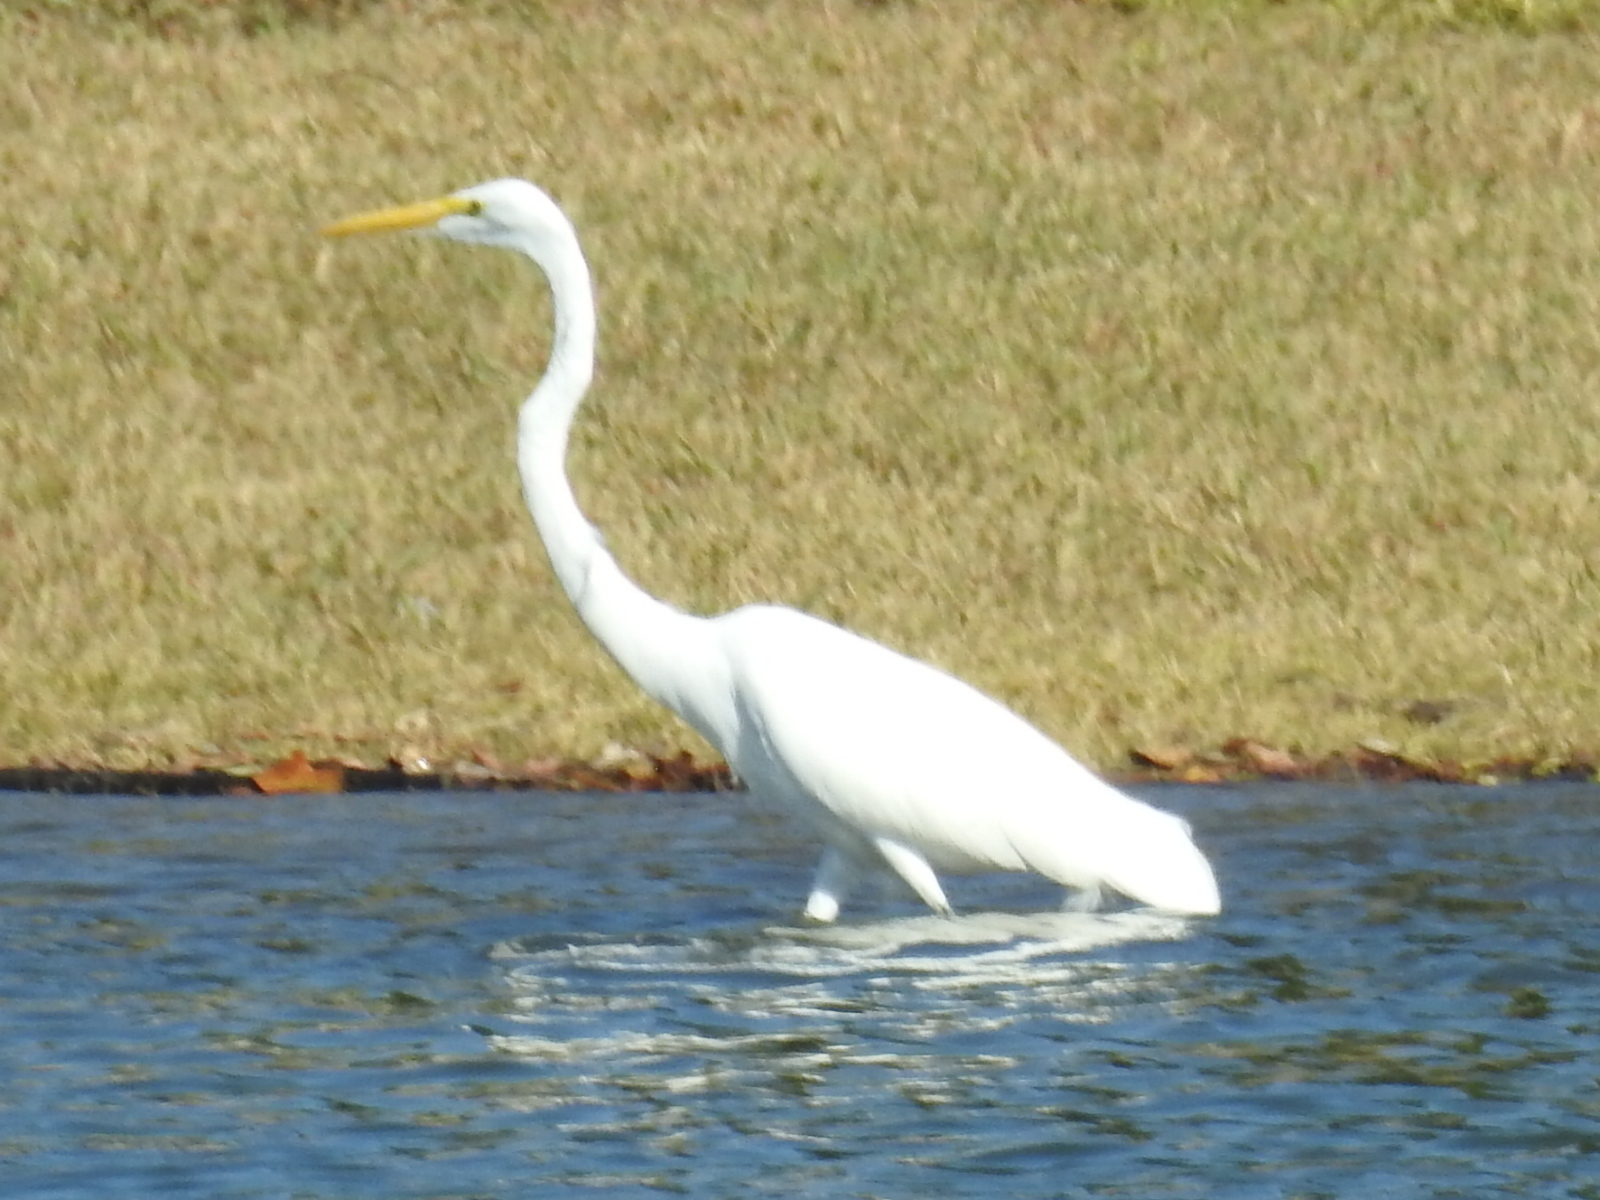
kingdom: Animalia
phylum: Chordata
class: Aves
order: Pelecaniformes
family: Ardeidae
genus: Ardea
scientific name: Ardea alba
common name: Great egret
